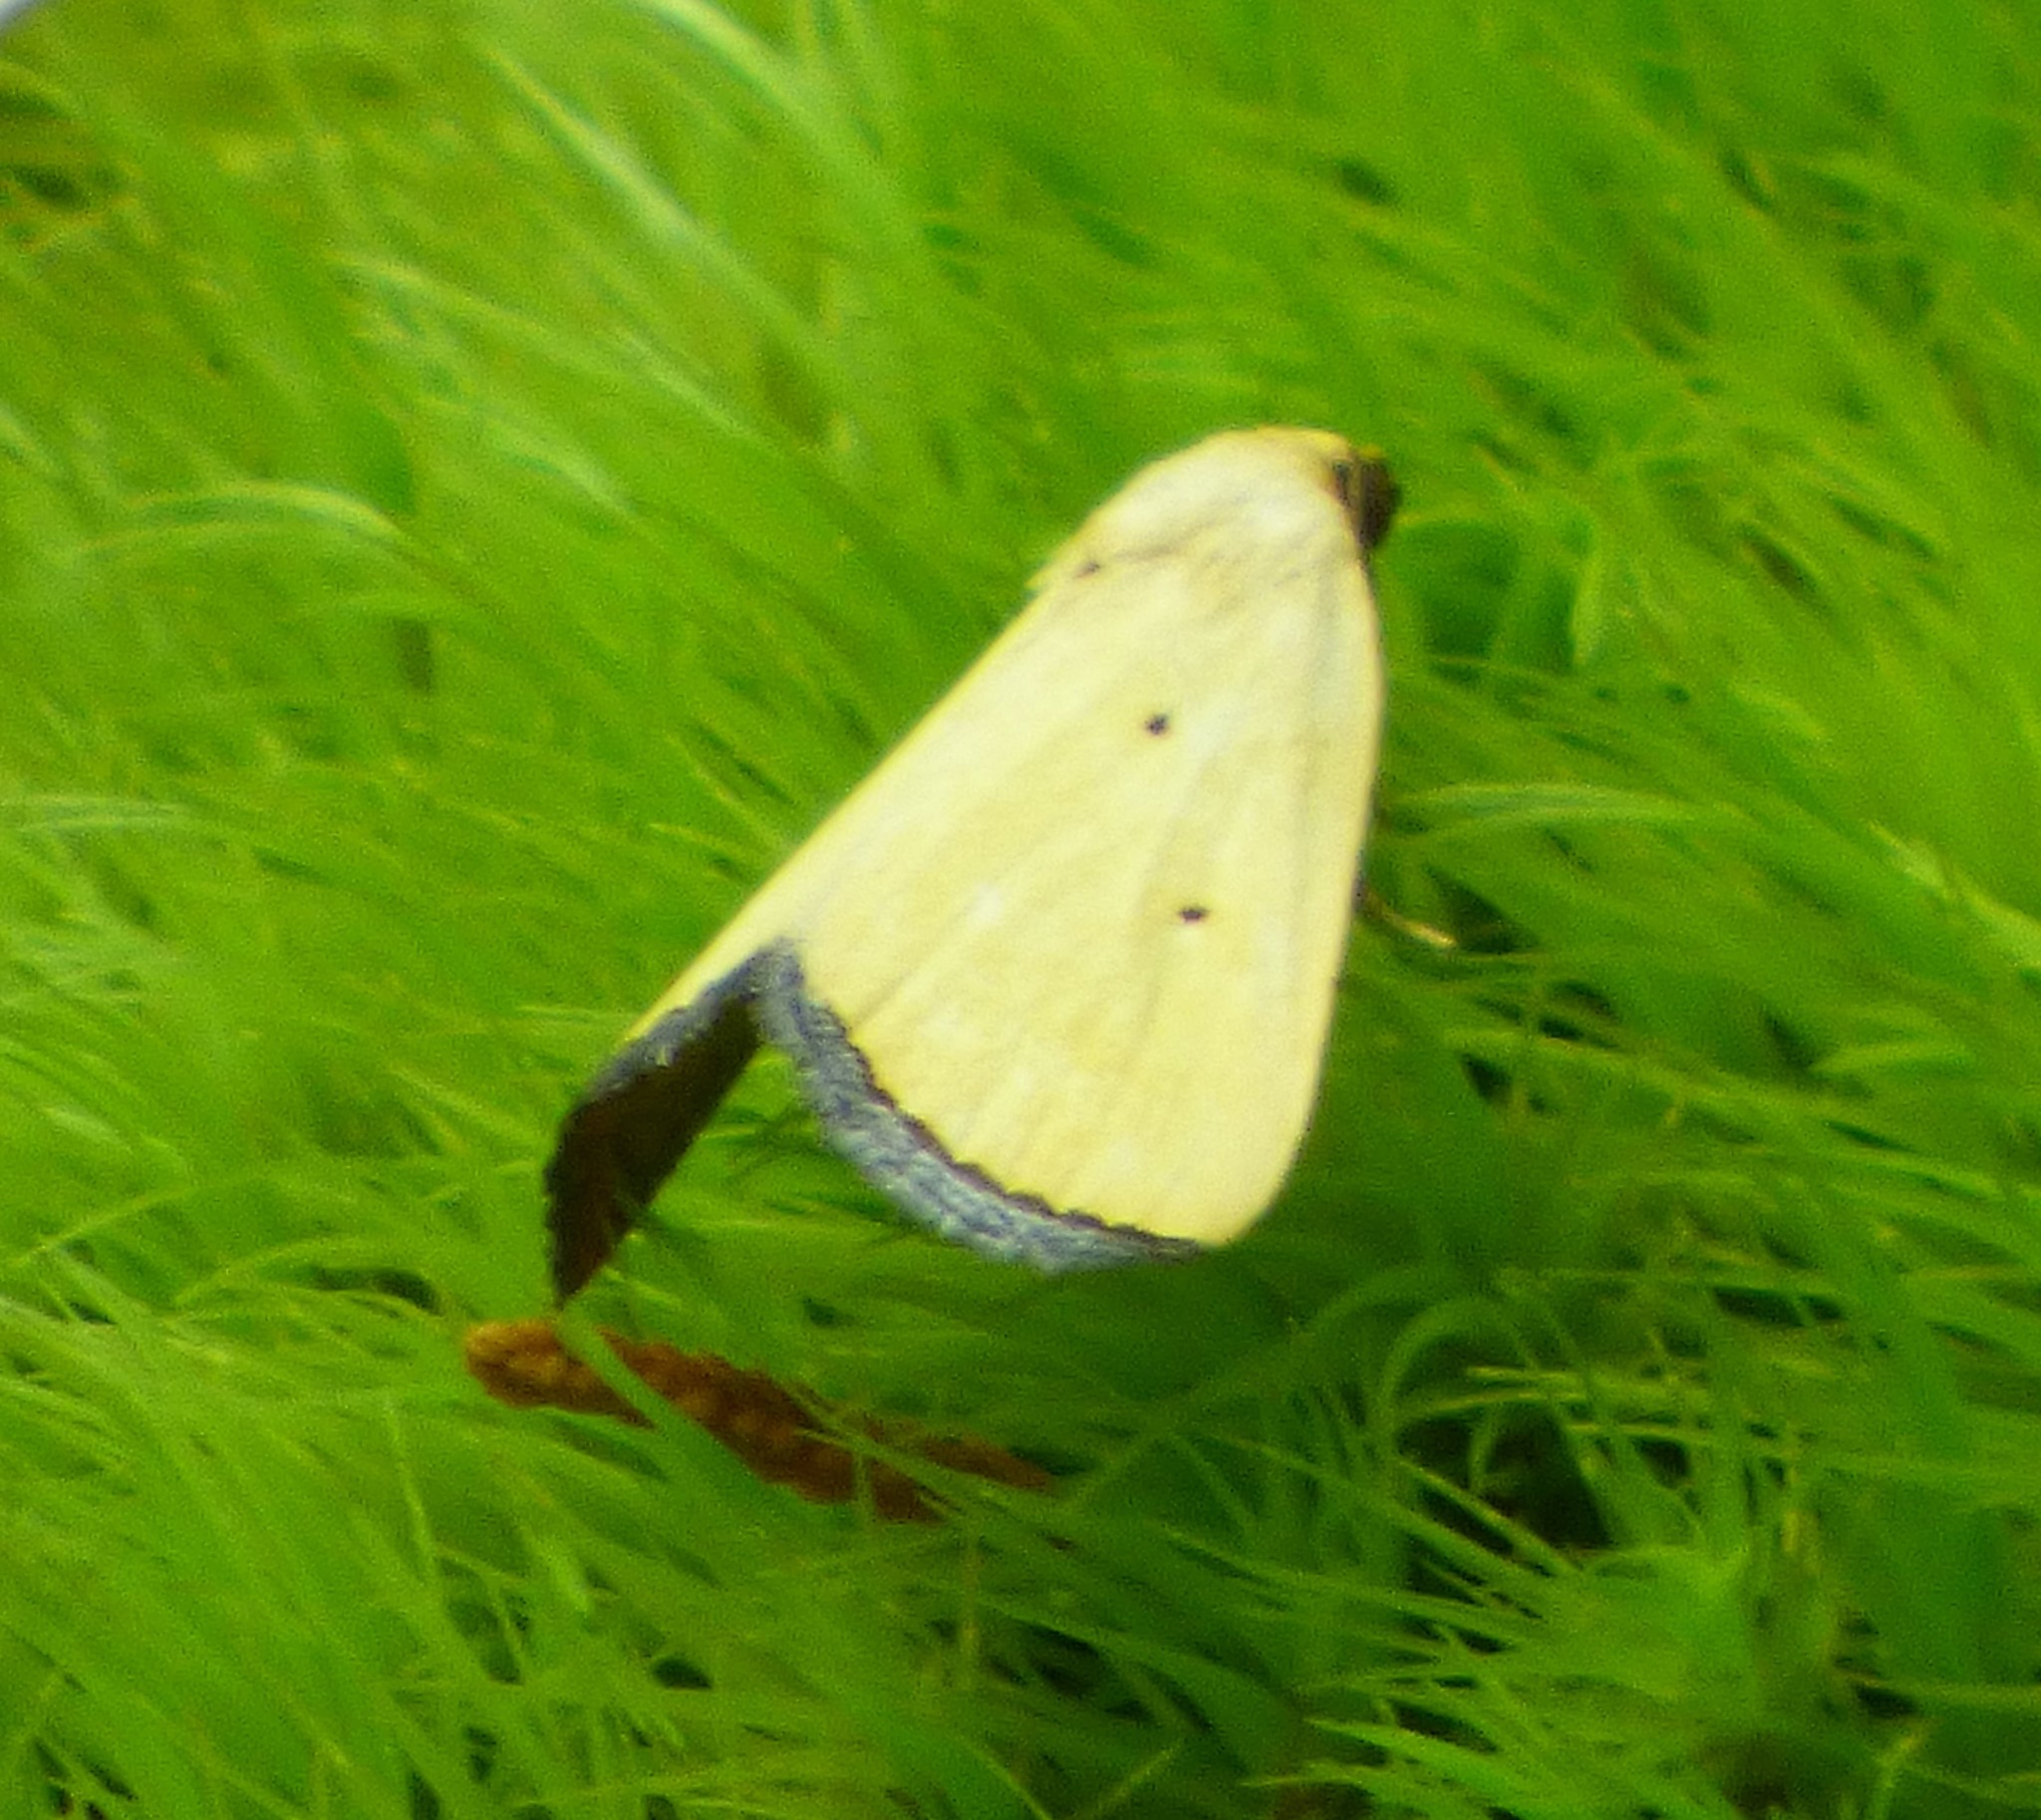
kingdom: Animalia
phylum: Arthropoda
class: Insecta
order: Lepidoptera
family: Noctuidae
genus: Marimatha
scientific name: Marimatha nigrofimbria
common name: Black-bordered lemon moth
